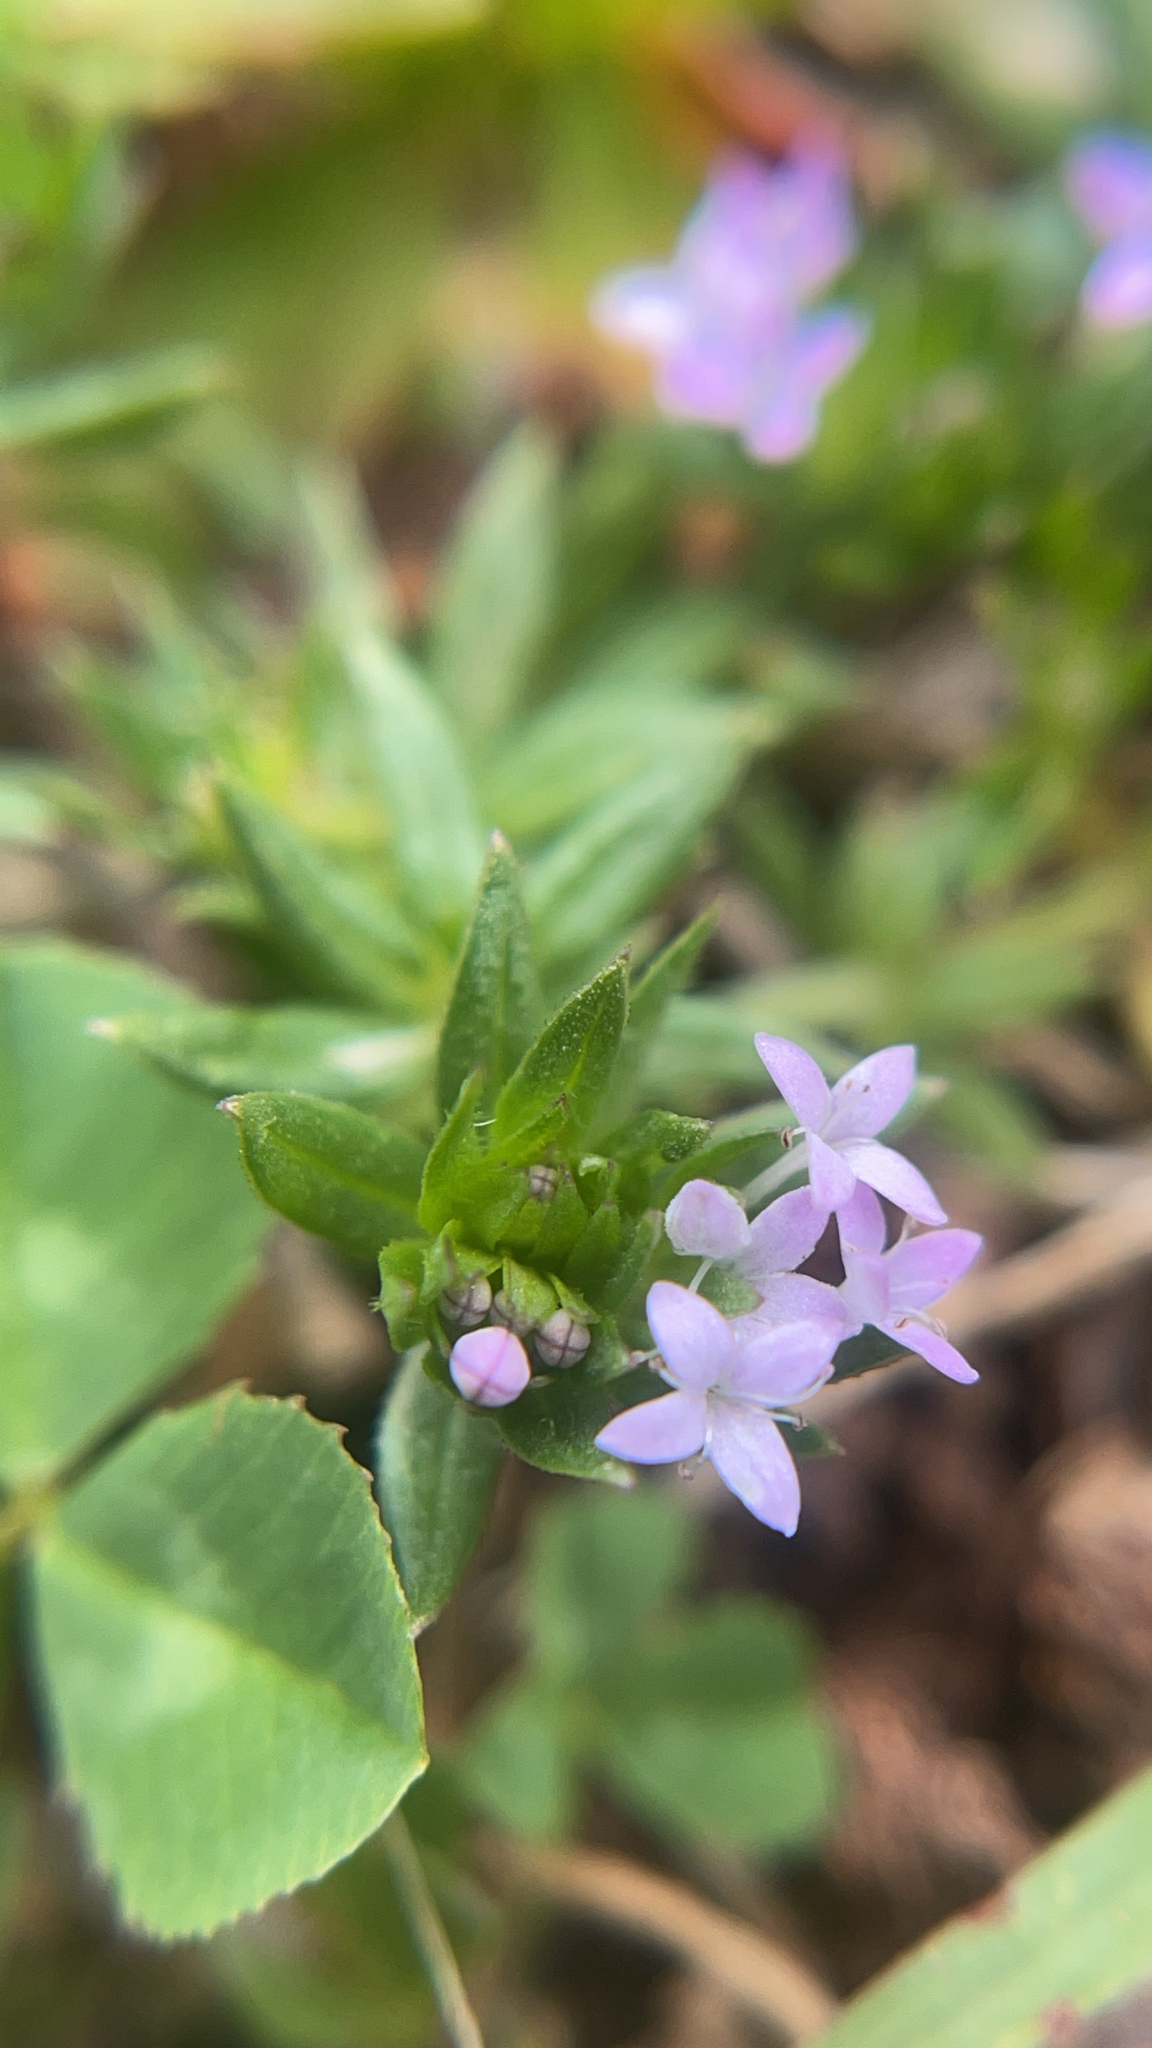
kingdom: Plantae
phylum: Tracheophyta
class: Magnoliopsida
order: Gentianales
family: Rubiaceae
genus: Sherardia
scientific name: Sherardia arvensis
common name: Field madder
